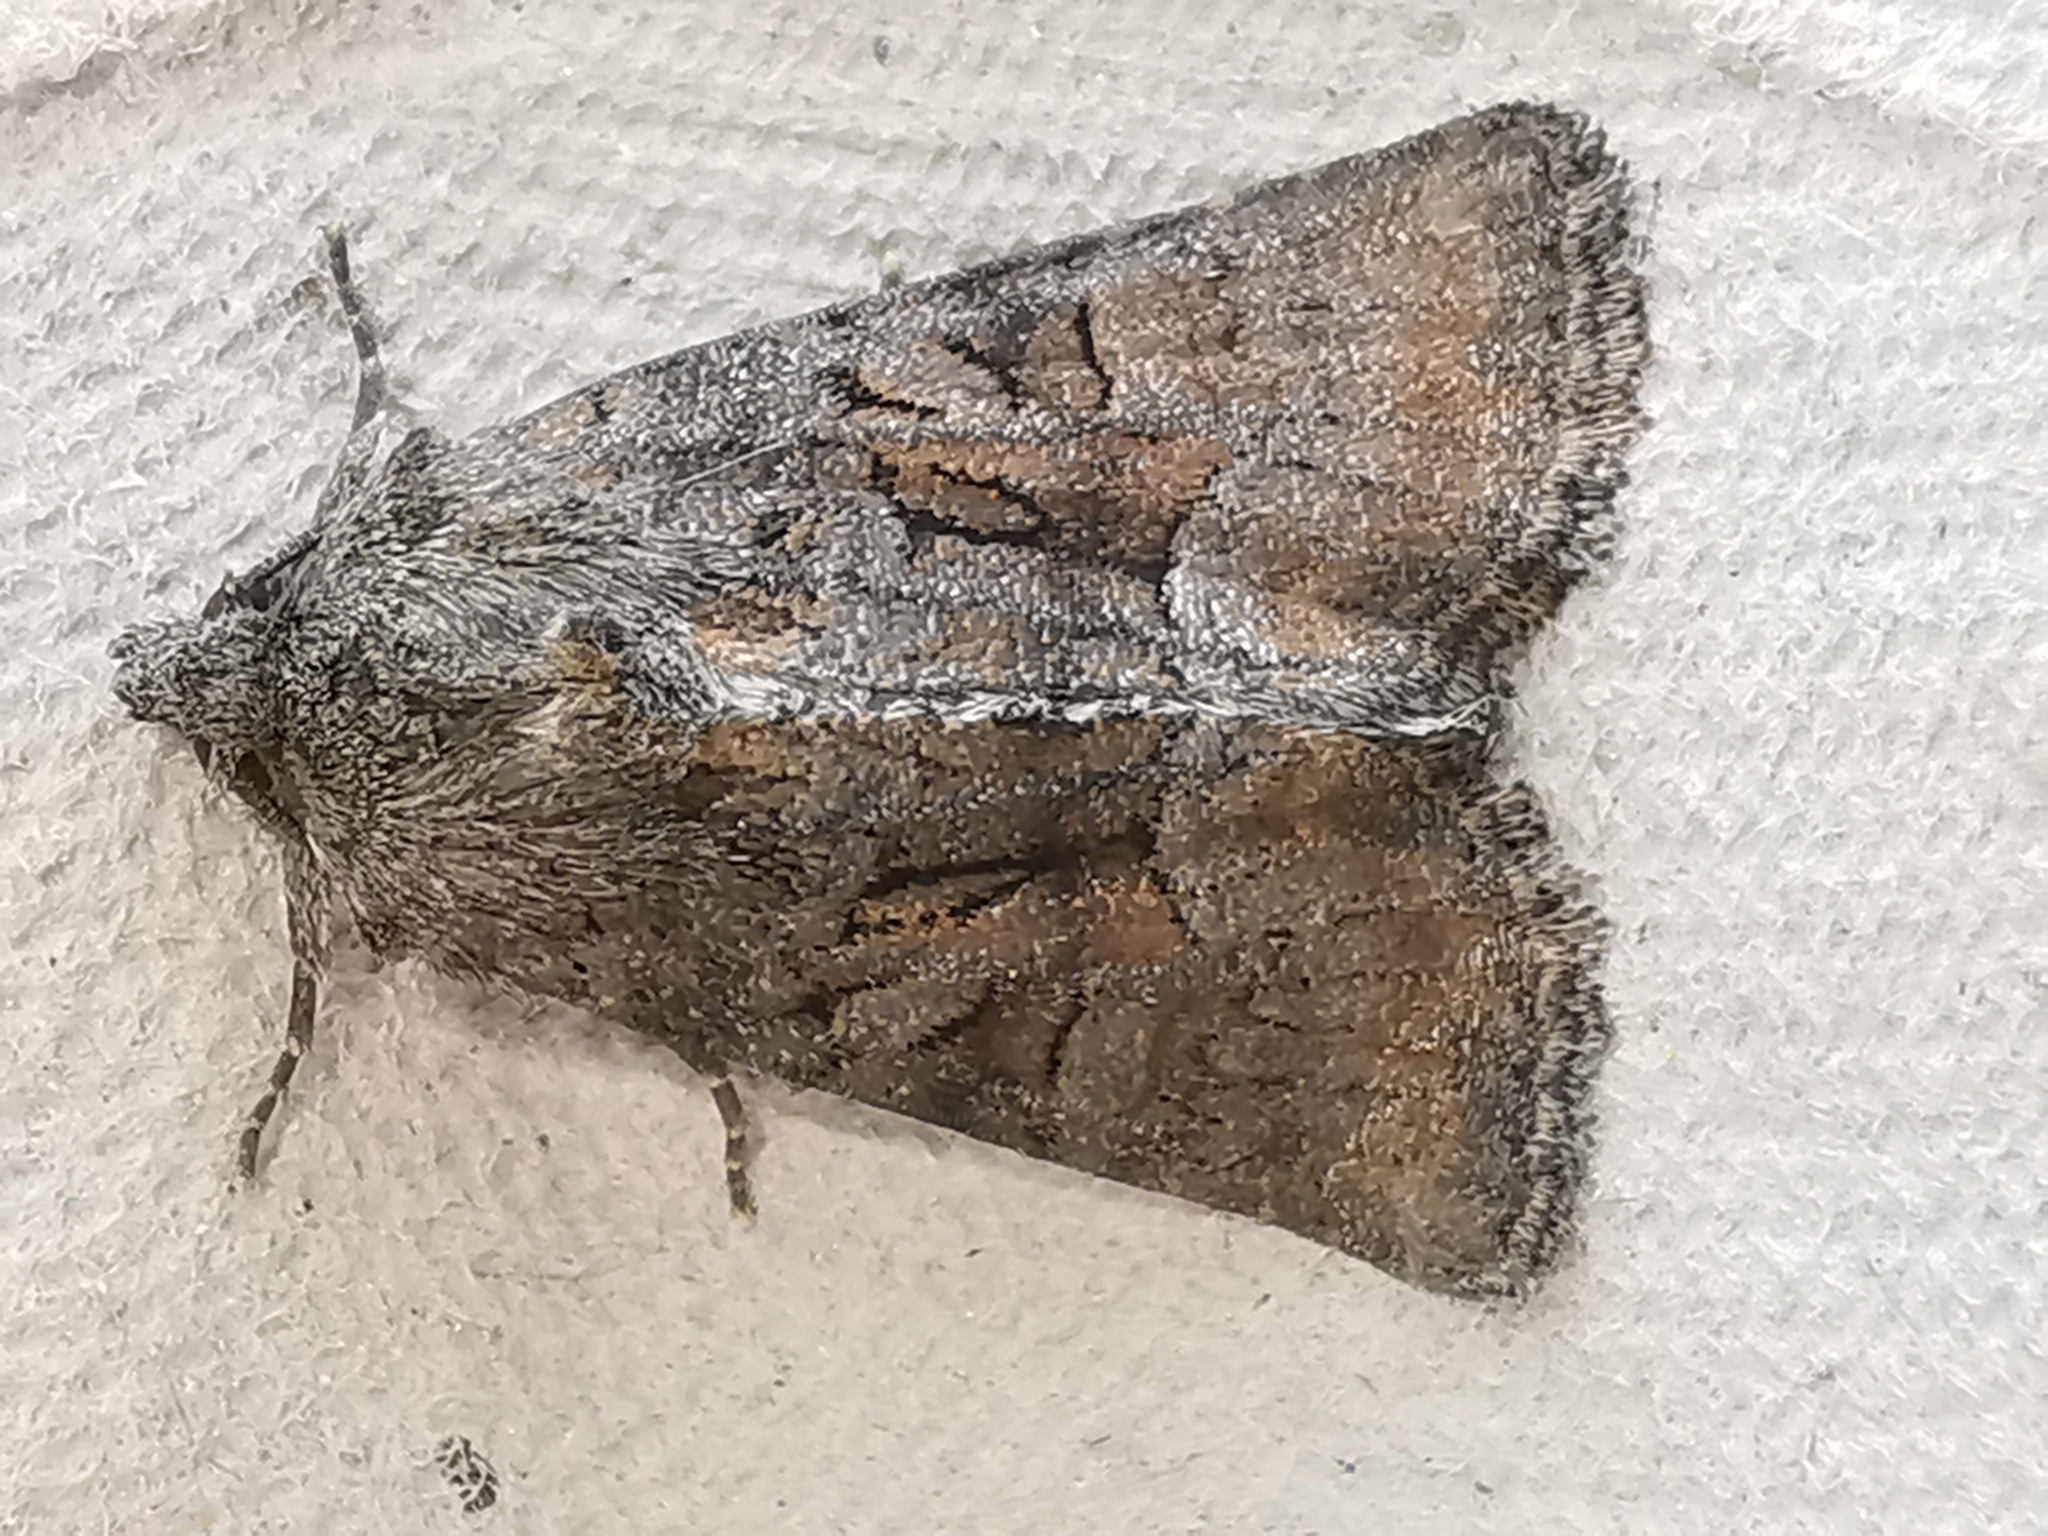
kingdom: Animalia
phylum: Arthropoda
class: Insecta
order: Lepidoptera
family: Noctuidae
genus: Oligia
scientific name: Oligia
